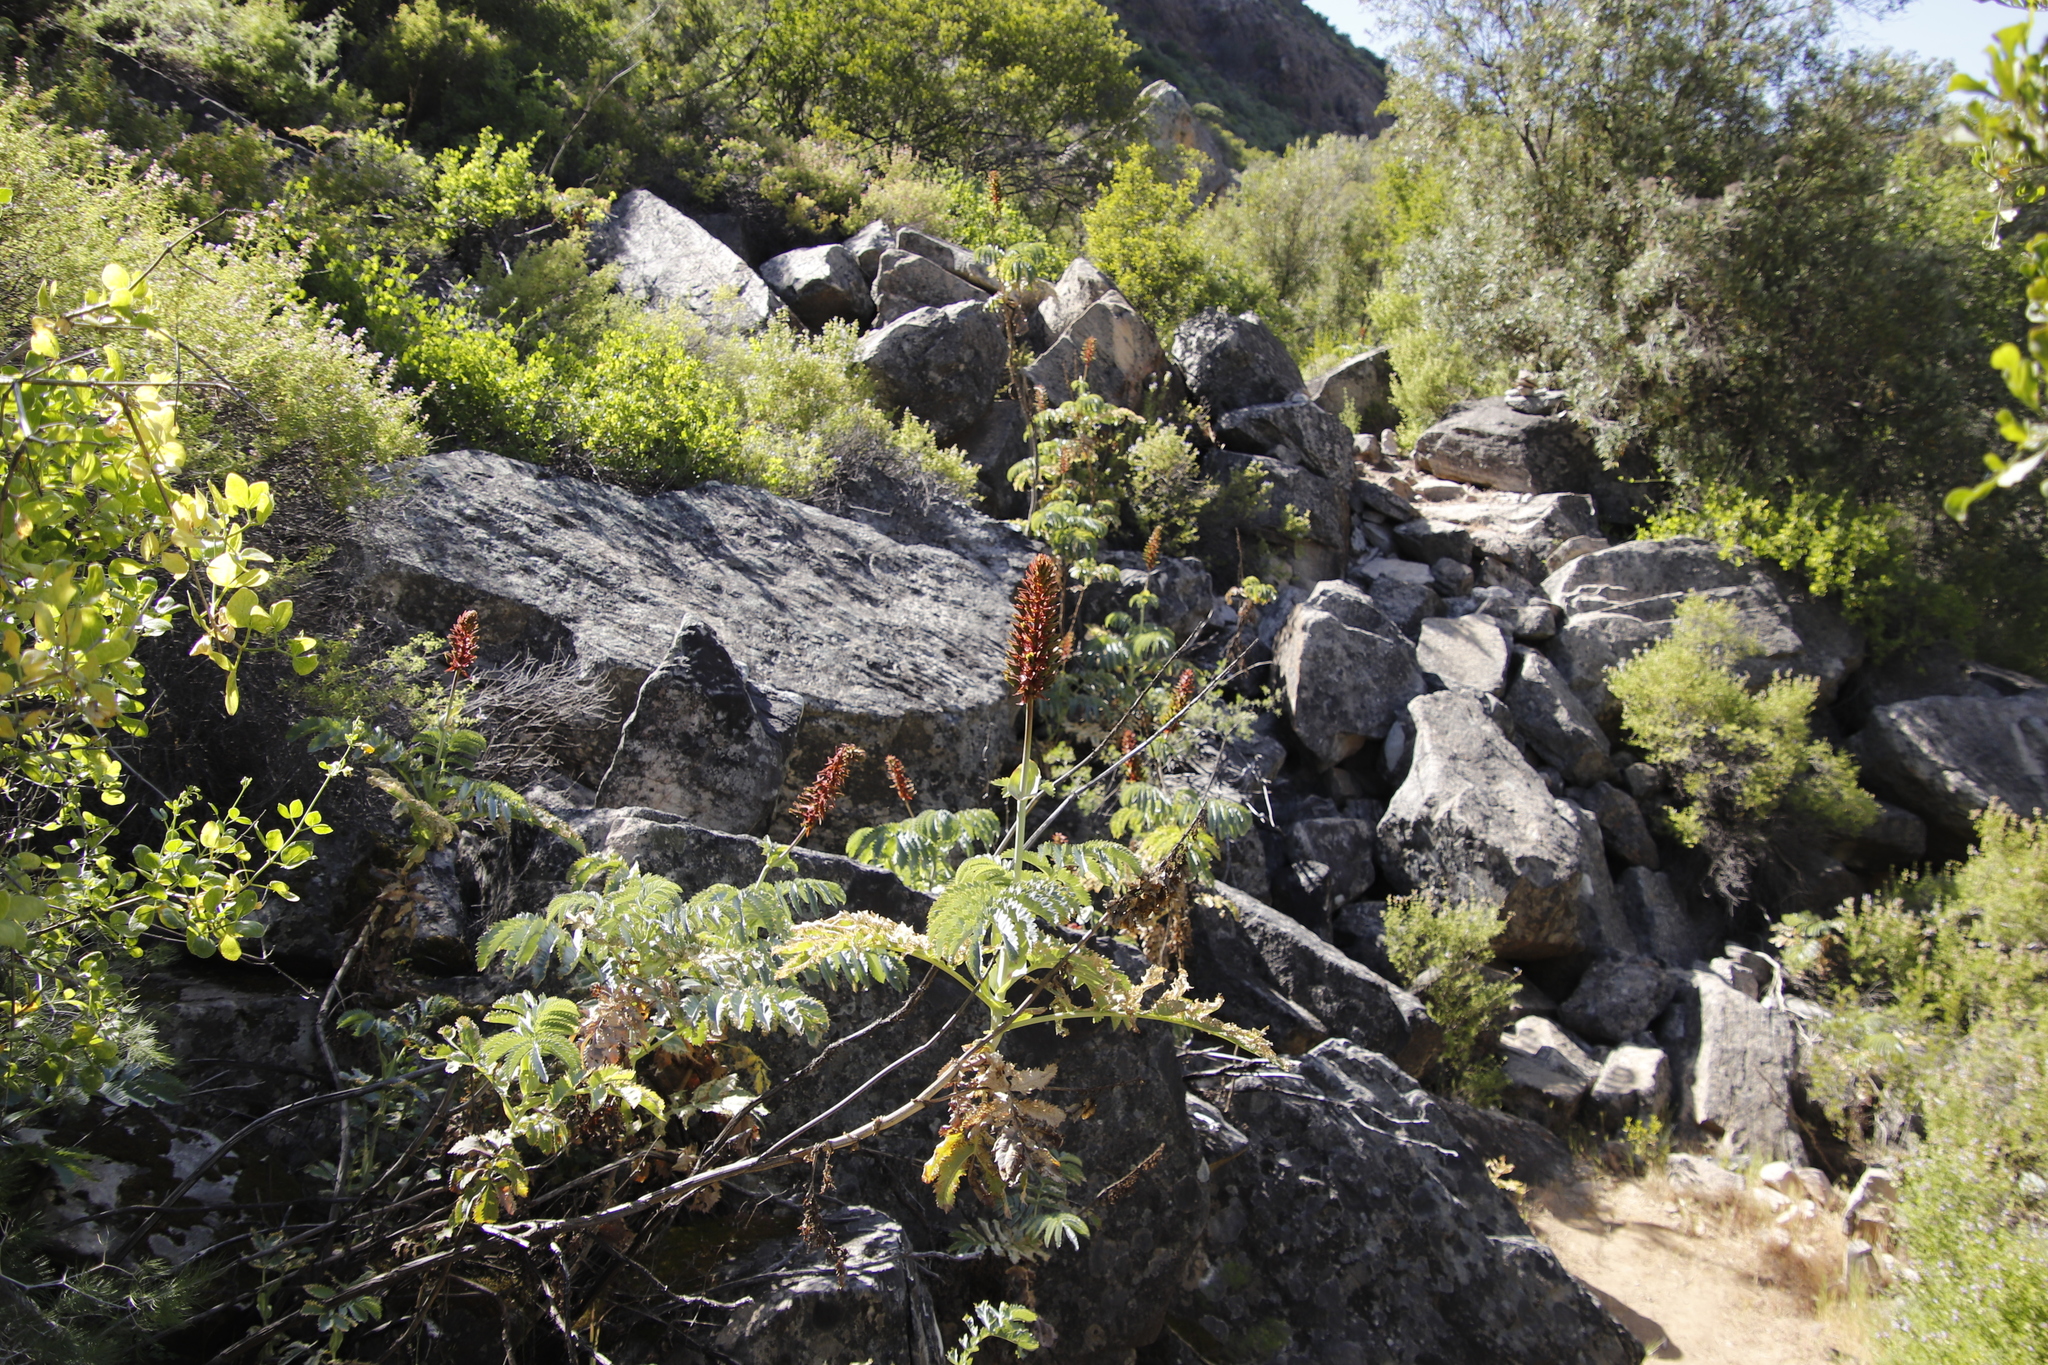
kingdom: Plantae
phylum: Tracheophyta
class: Magnoliopsida
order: Geraniales
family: Melianthaceae
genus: Melianthus
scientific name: Melianthus major
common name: Honey-flower
